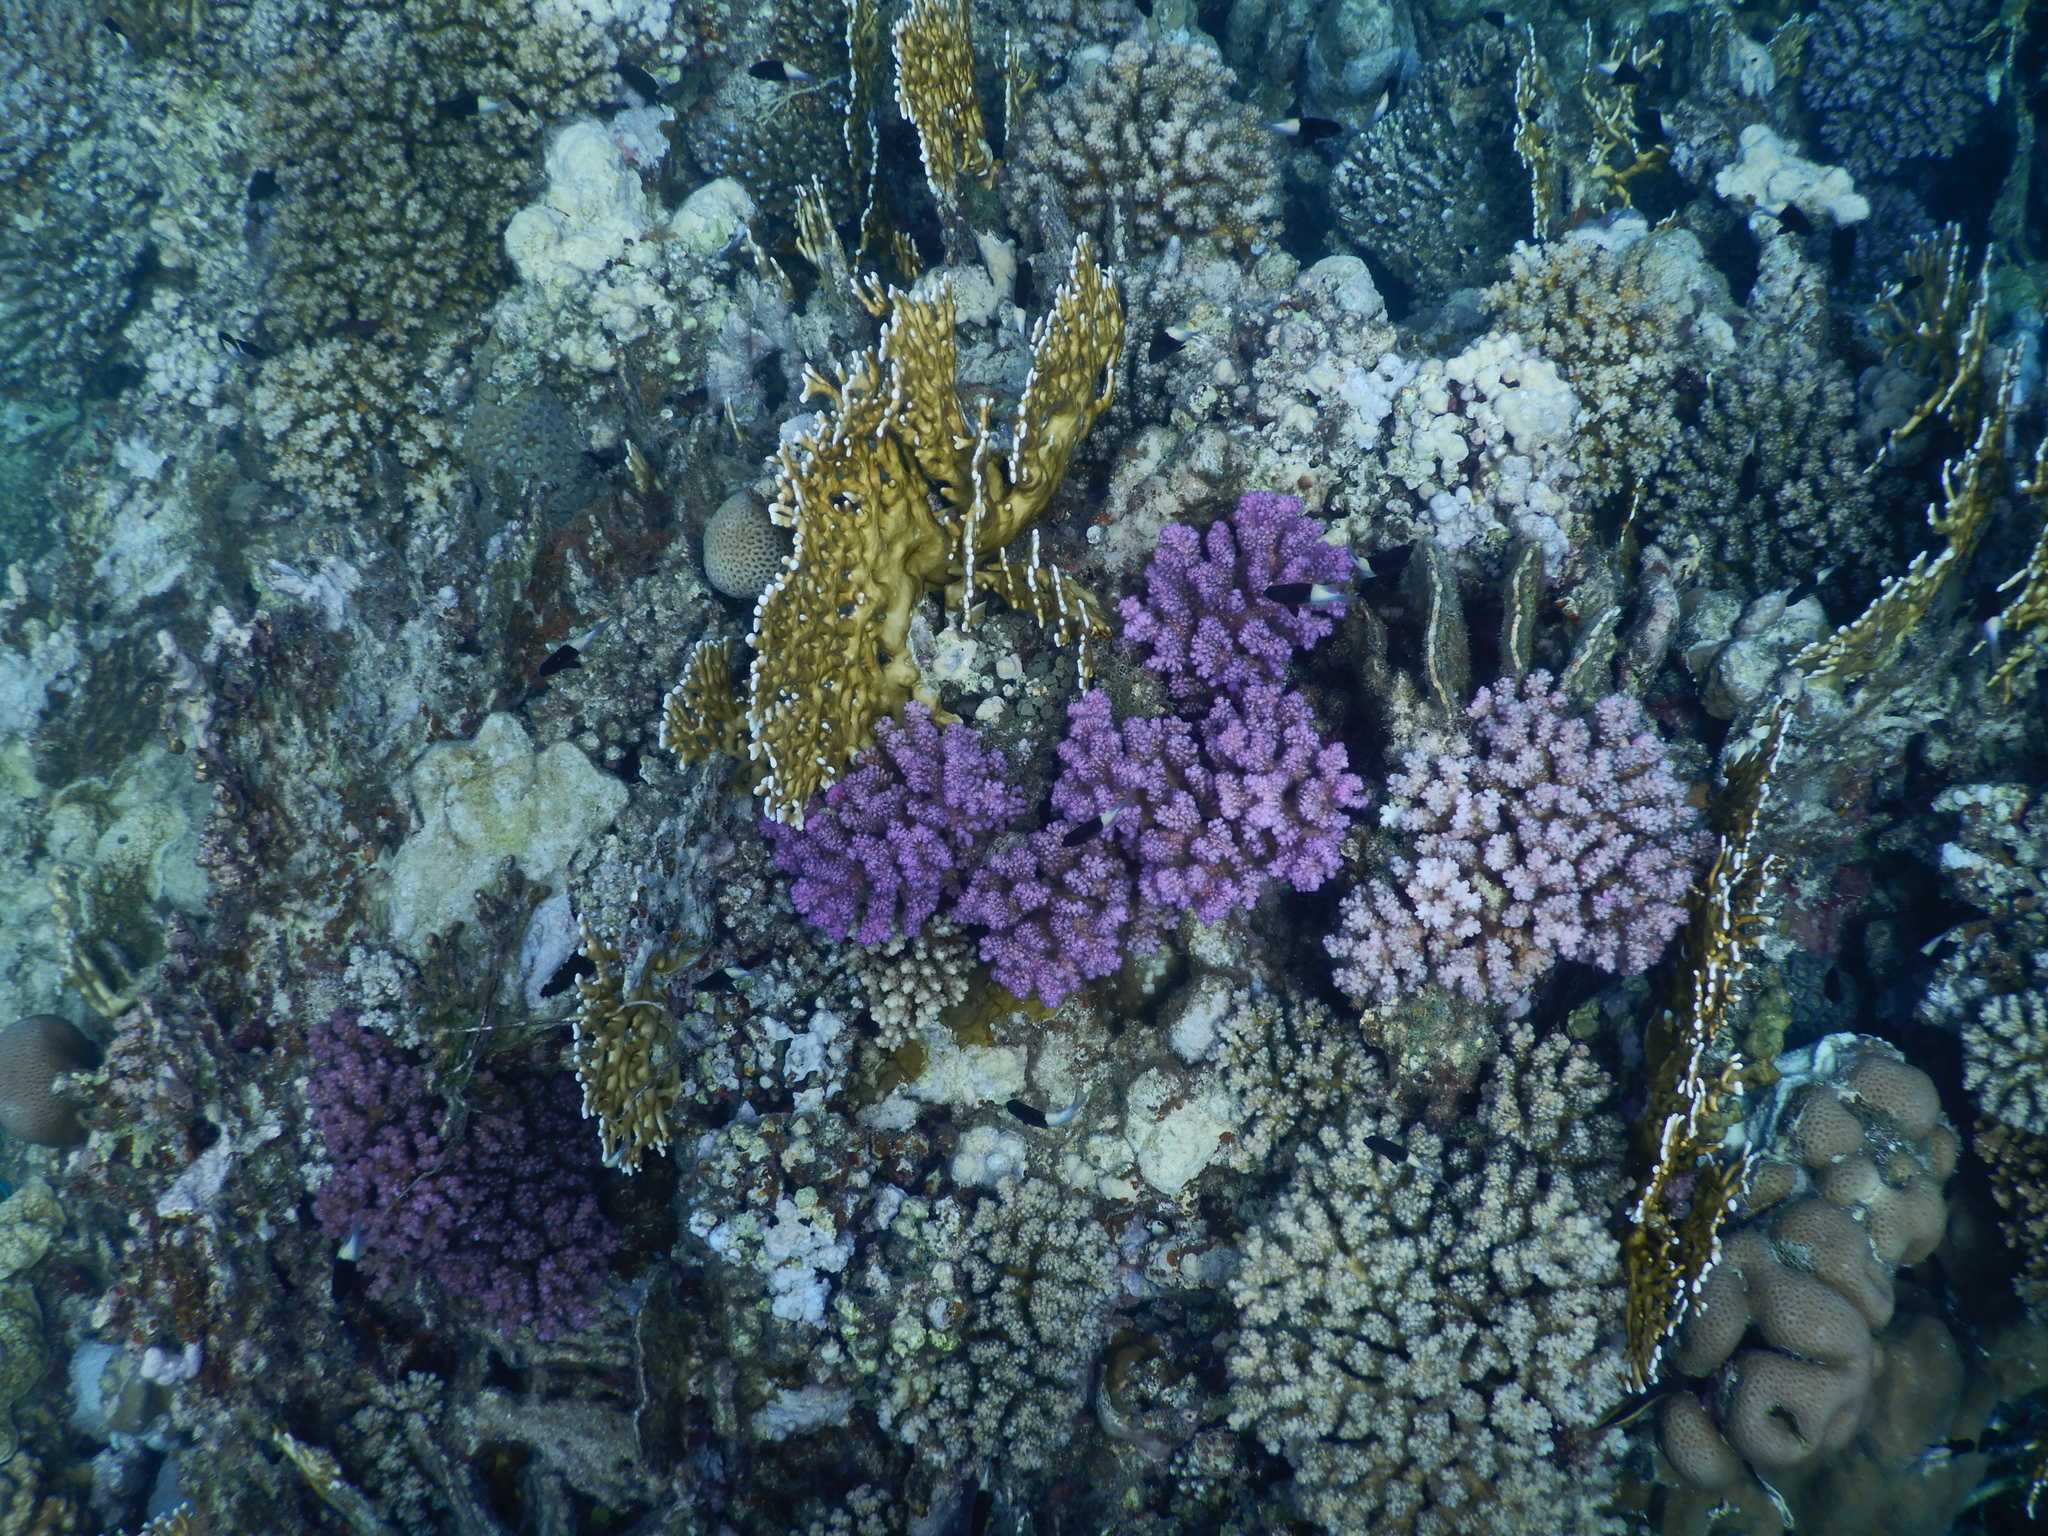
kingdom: Animalia
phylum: Cnidaria
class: Anthozoa
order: Scleractinia
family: Pocilloporidae
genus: Pocillopora
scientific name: Pocillopora verrucosa
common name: Cauliflower coral
